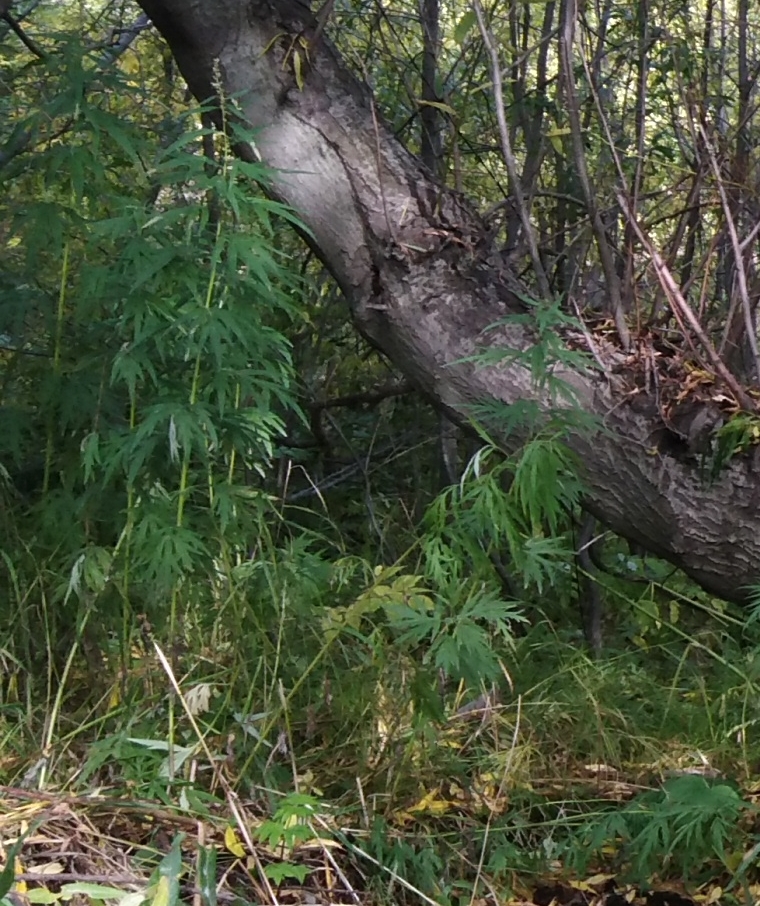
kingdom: Plantae
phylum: Tracheophyta
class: Magnoliopsida
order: Asterales
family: Asteraceae
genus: Artemisia
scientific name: Artemisia vulgaris
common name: Mugwort
